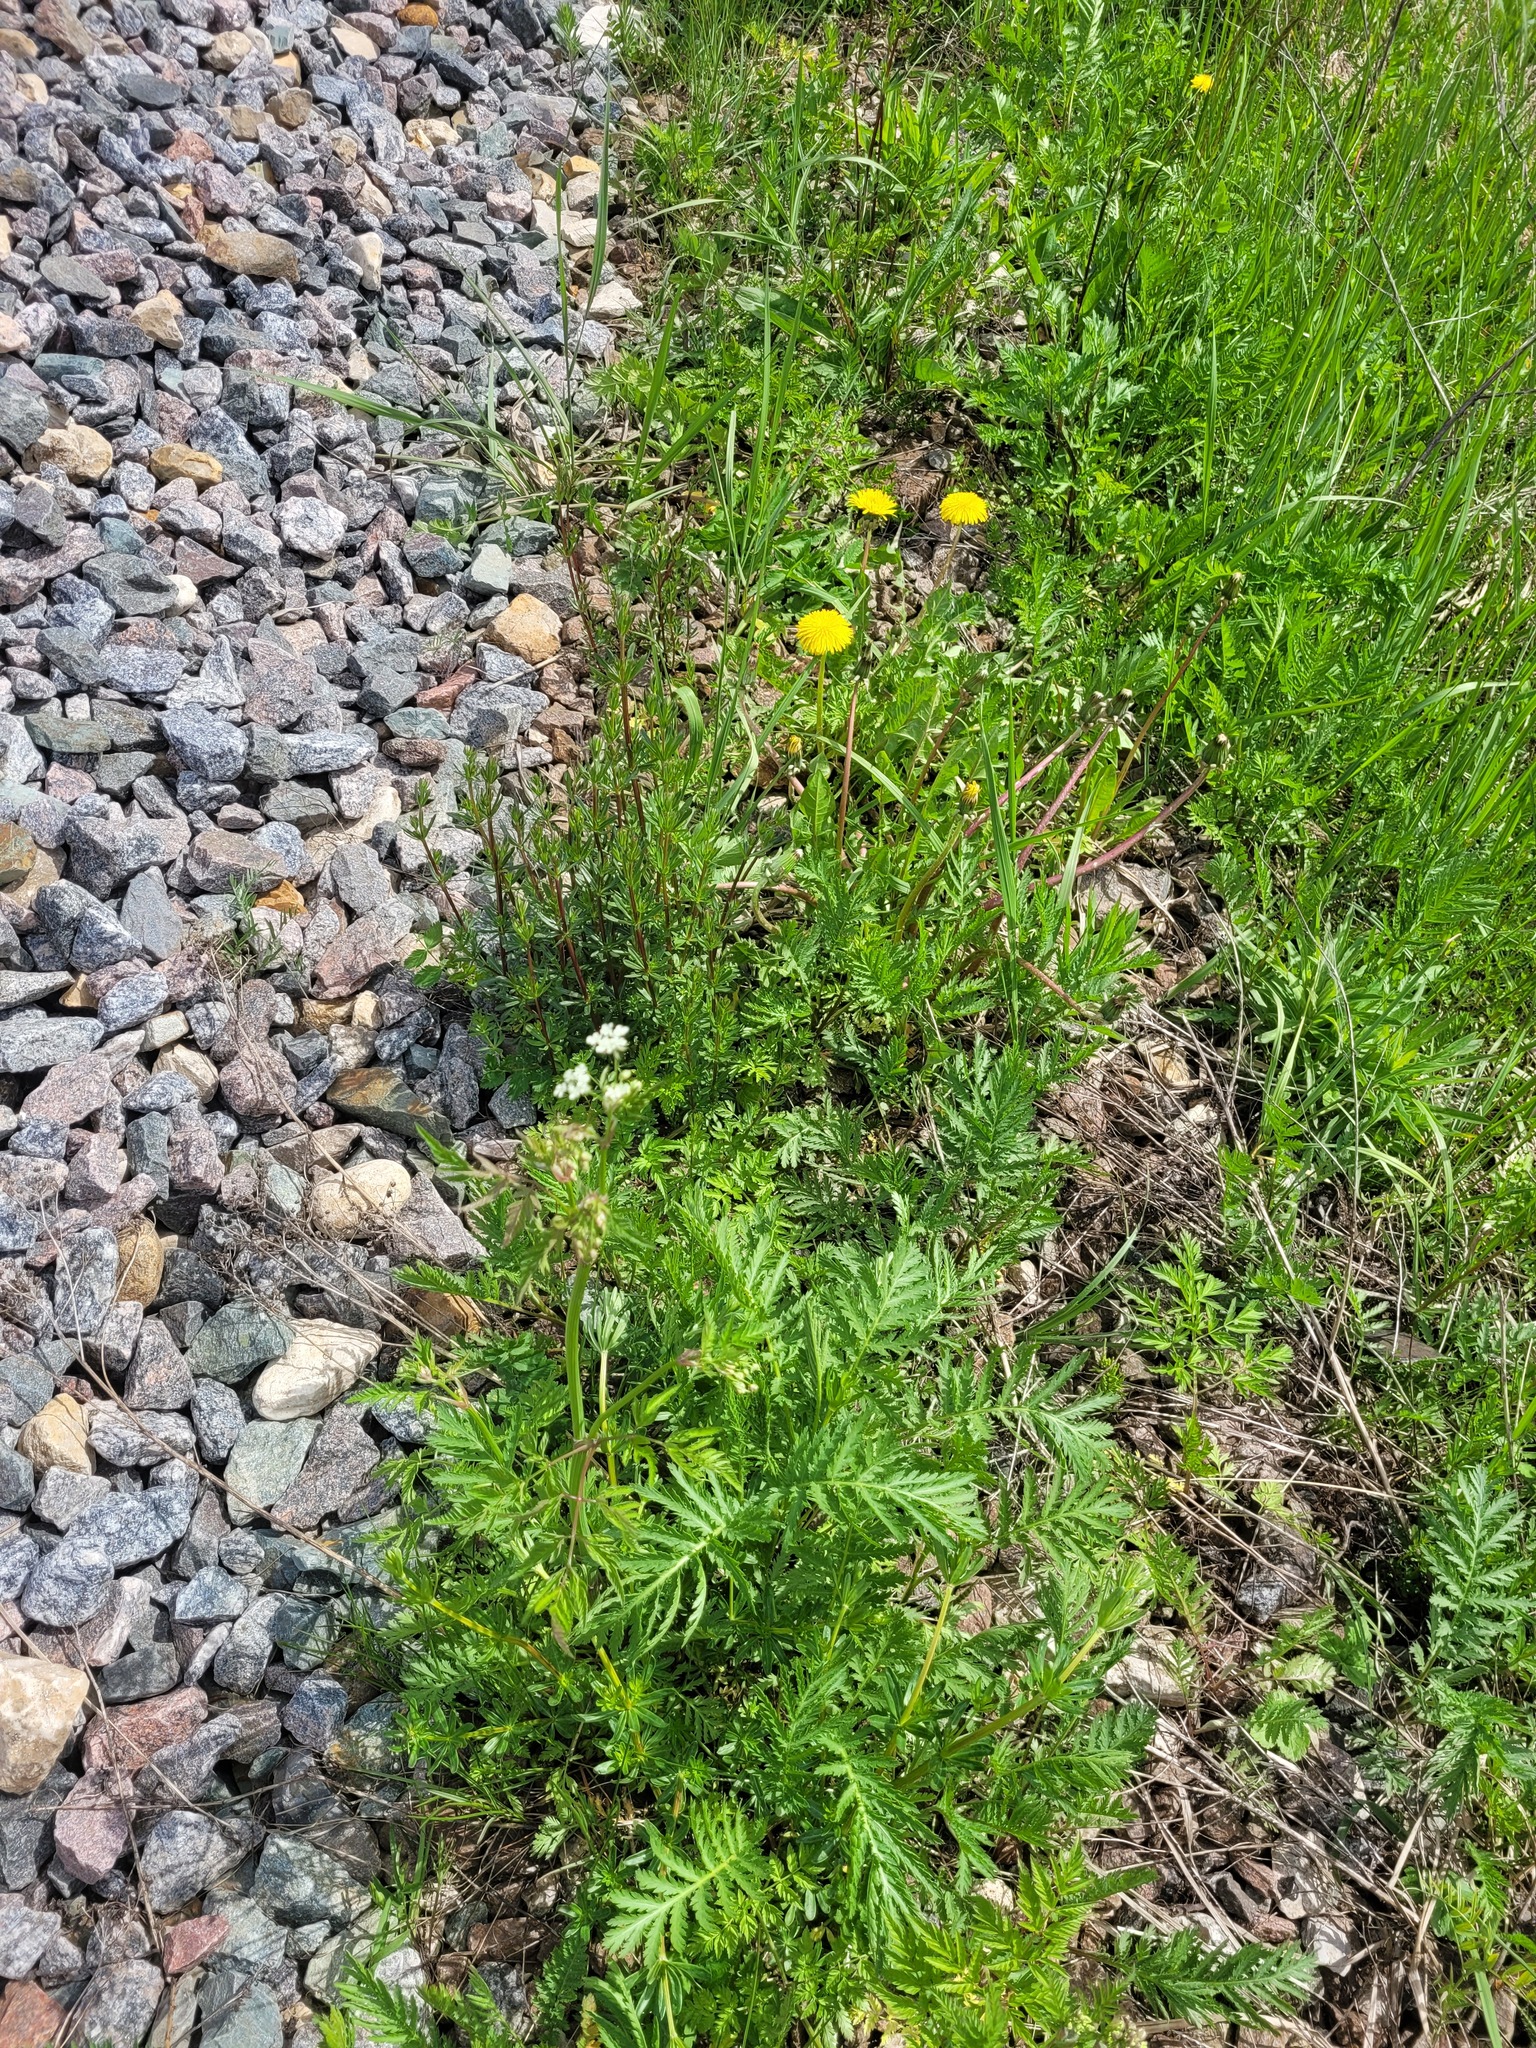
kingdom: Plantae
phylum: Tracheophyta
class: Magnoliopsida
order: Apiales
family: Apiaceae
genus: Anthriscus
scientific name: Anthriscus sylvestris
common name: Cow parsley
